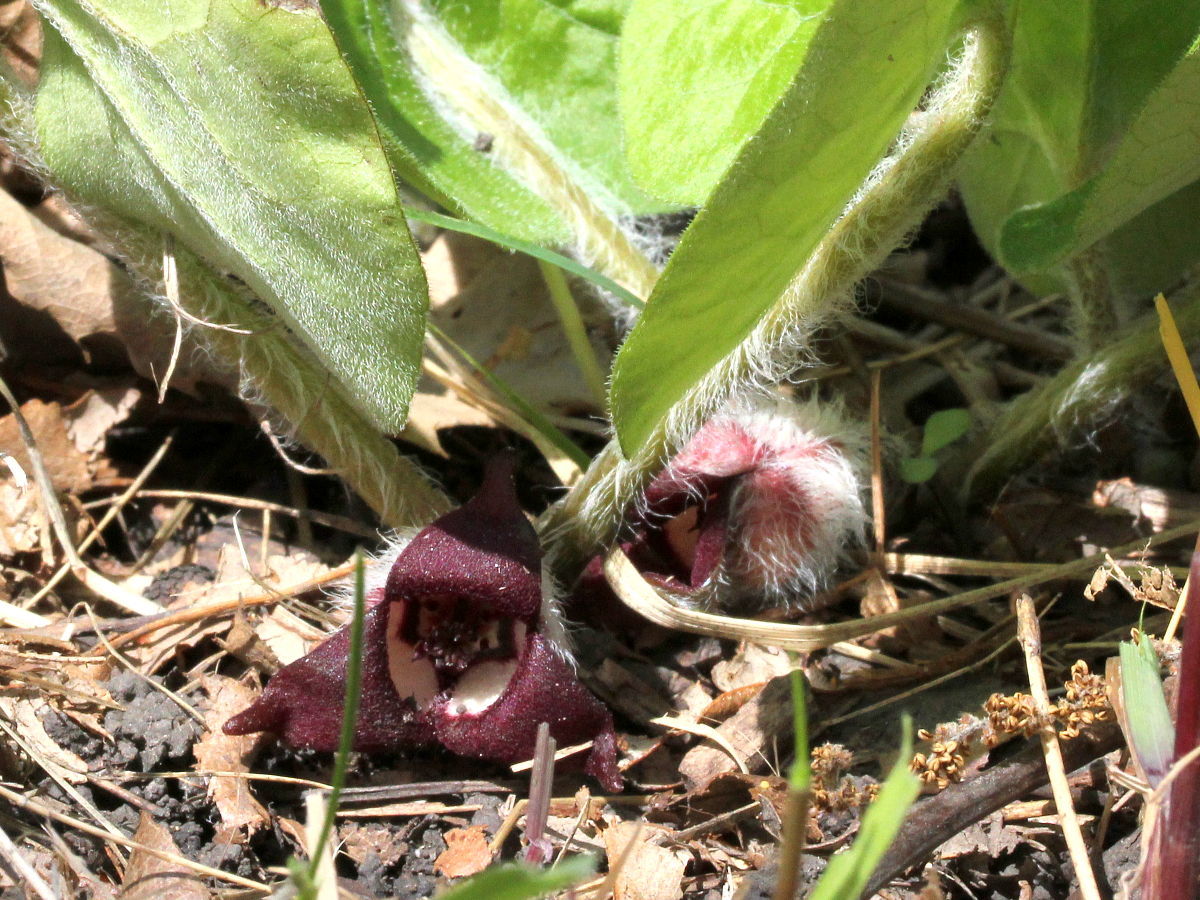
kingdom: Plantae
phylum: Tracheophyta
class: Magnoliopsida
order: Piperales
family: Aristolochiaceae
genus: Asarum
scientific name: Asarum canadense
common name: Wild ginger
